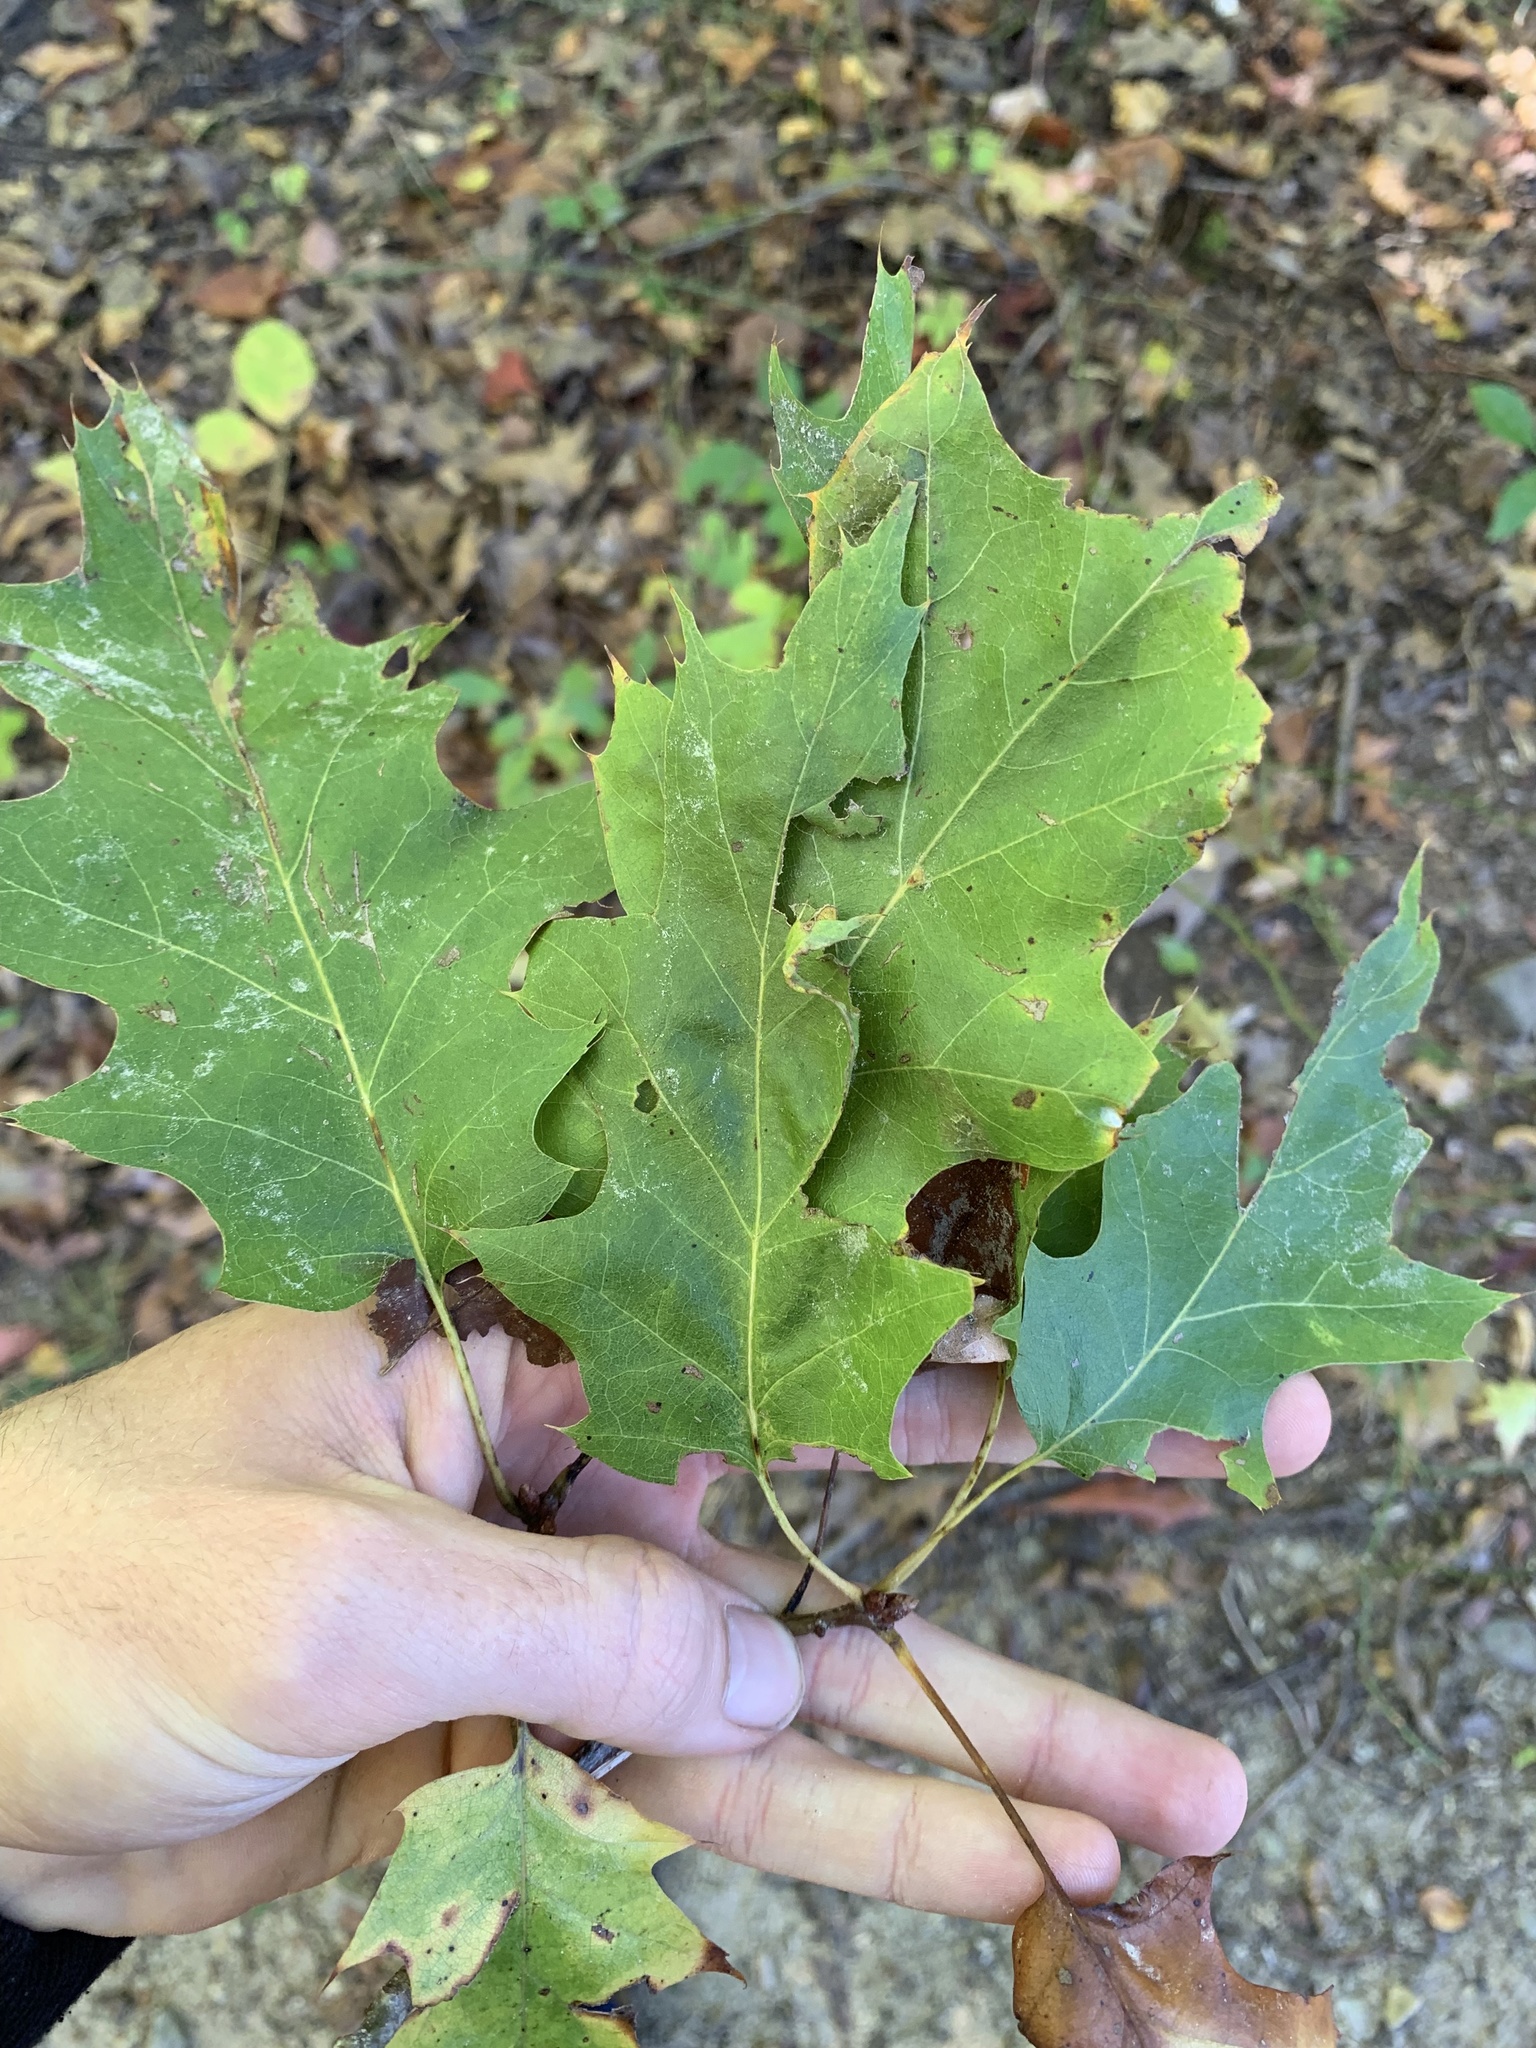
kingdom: Plantae
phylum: Tracheophyta
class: Magnoliopsida
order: Fagales
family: Fagaceae
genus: Quercus
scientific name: Quercus rubra
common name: Red oak
